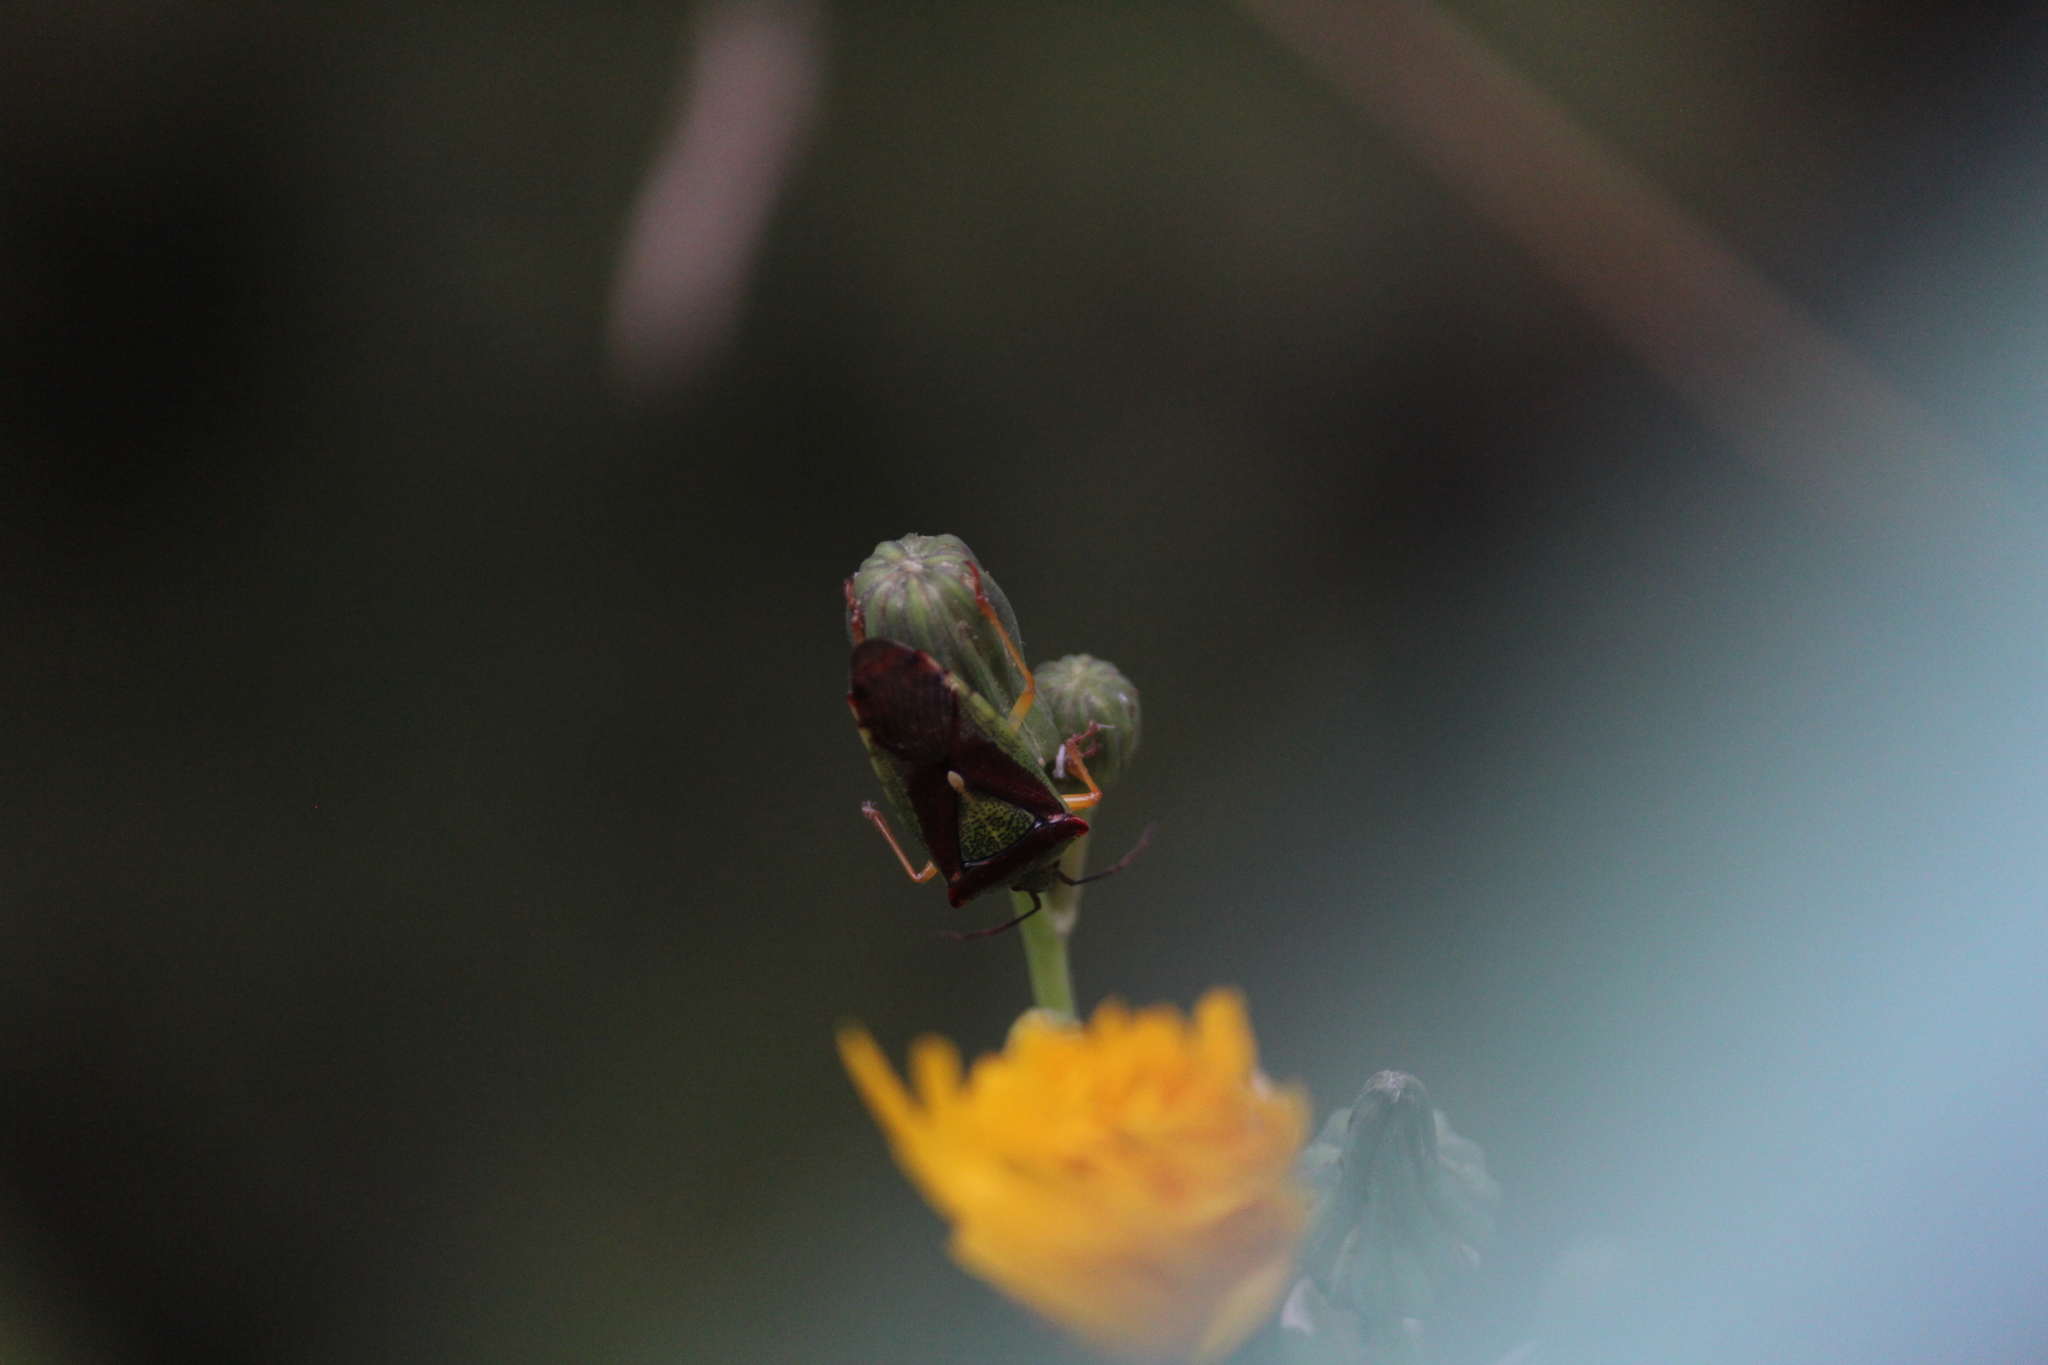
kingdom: Animalia
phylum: Arthropoda
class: Insecta
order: Hemiptera
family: Acanthosomatidae
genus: Acanthosoma
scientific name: Acanthosoma spinicolle
